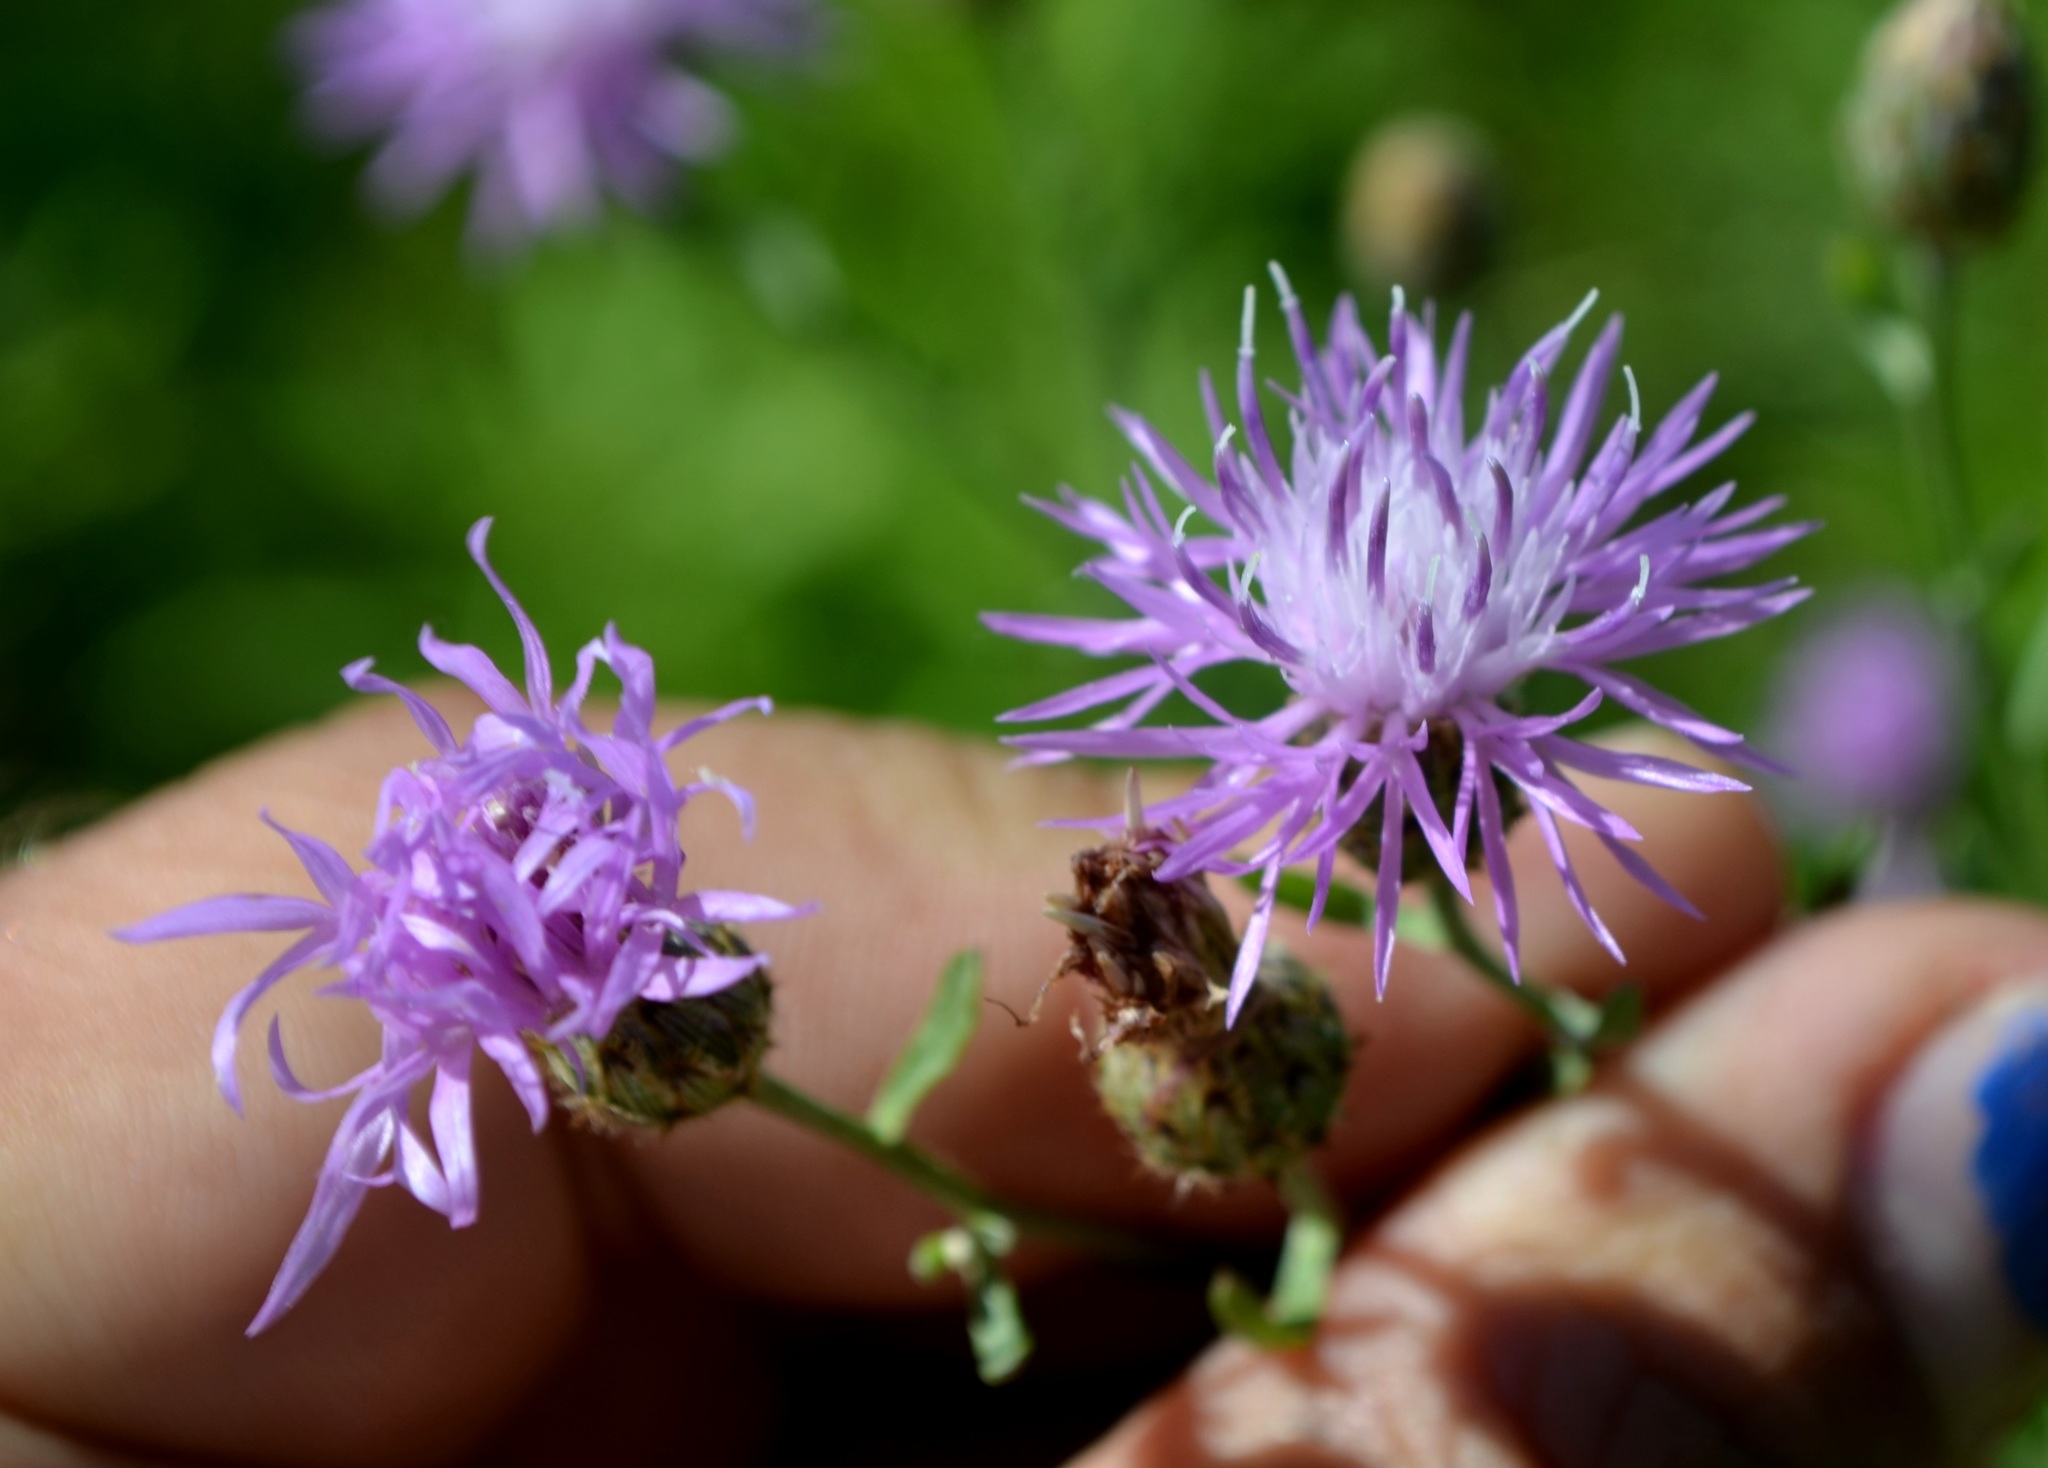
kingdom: Plantae
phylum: Tracheophyta
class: Magnoliopsida
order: Asterales
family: Asteraceae
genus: Centaurea
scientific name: Centaurea stoebe
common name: Spotted knapweed
